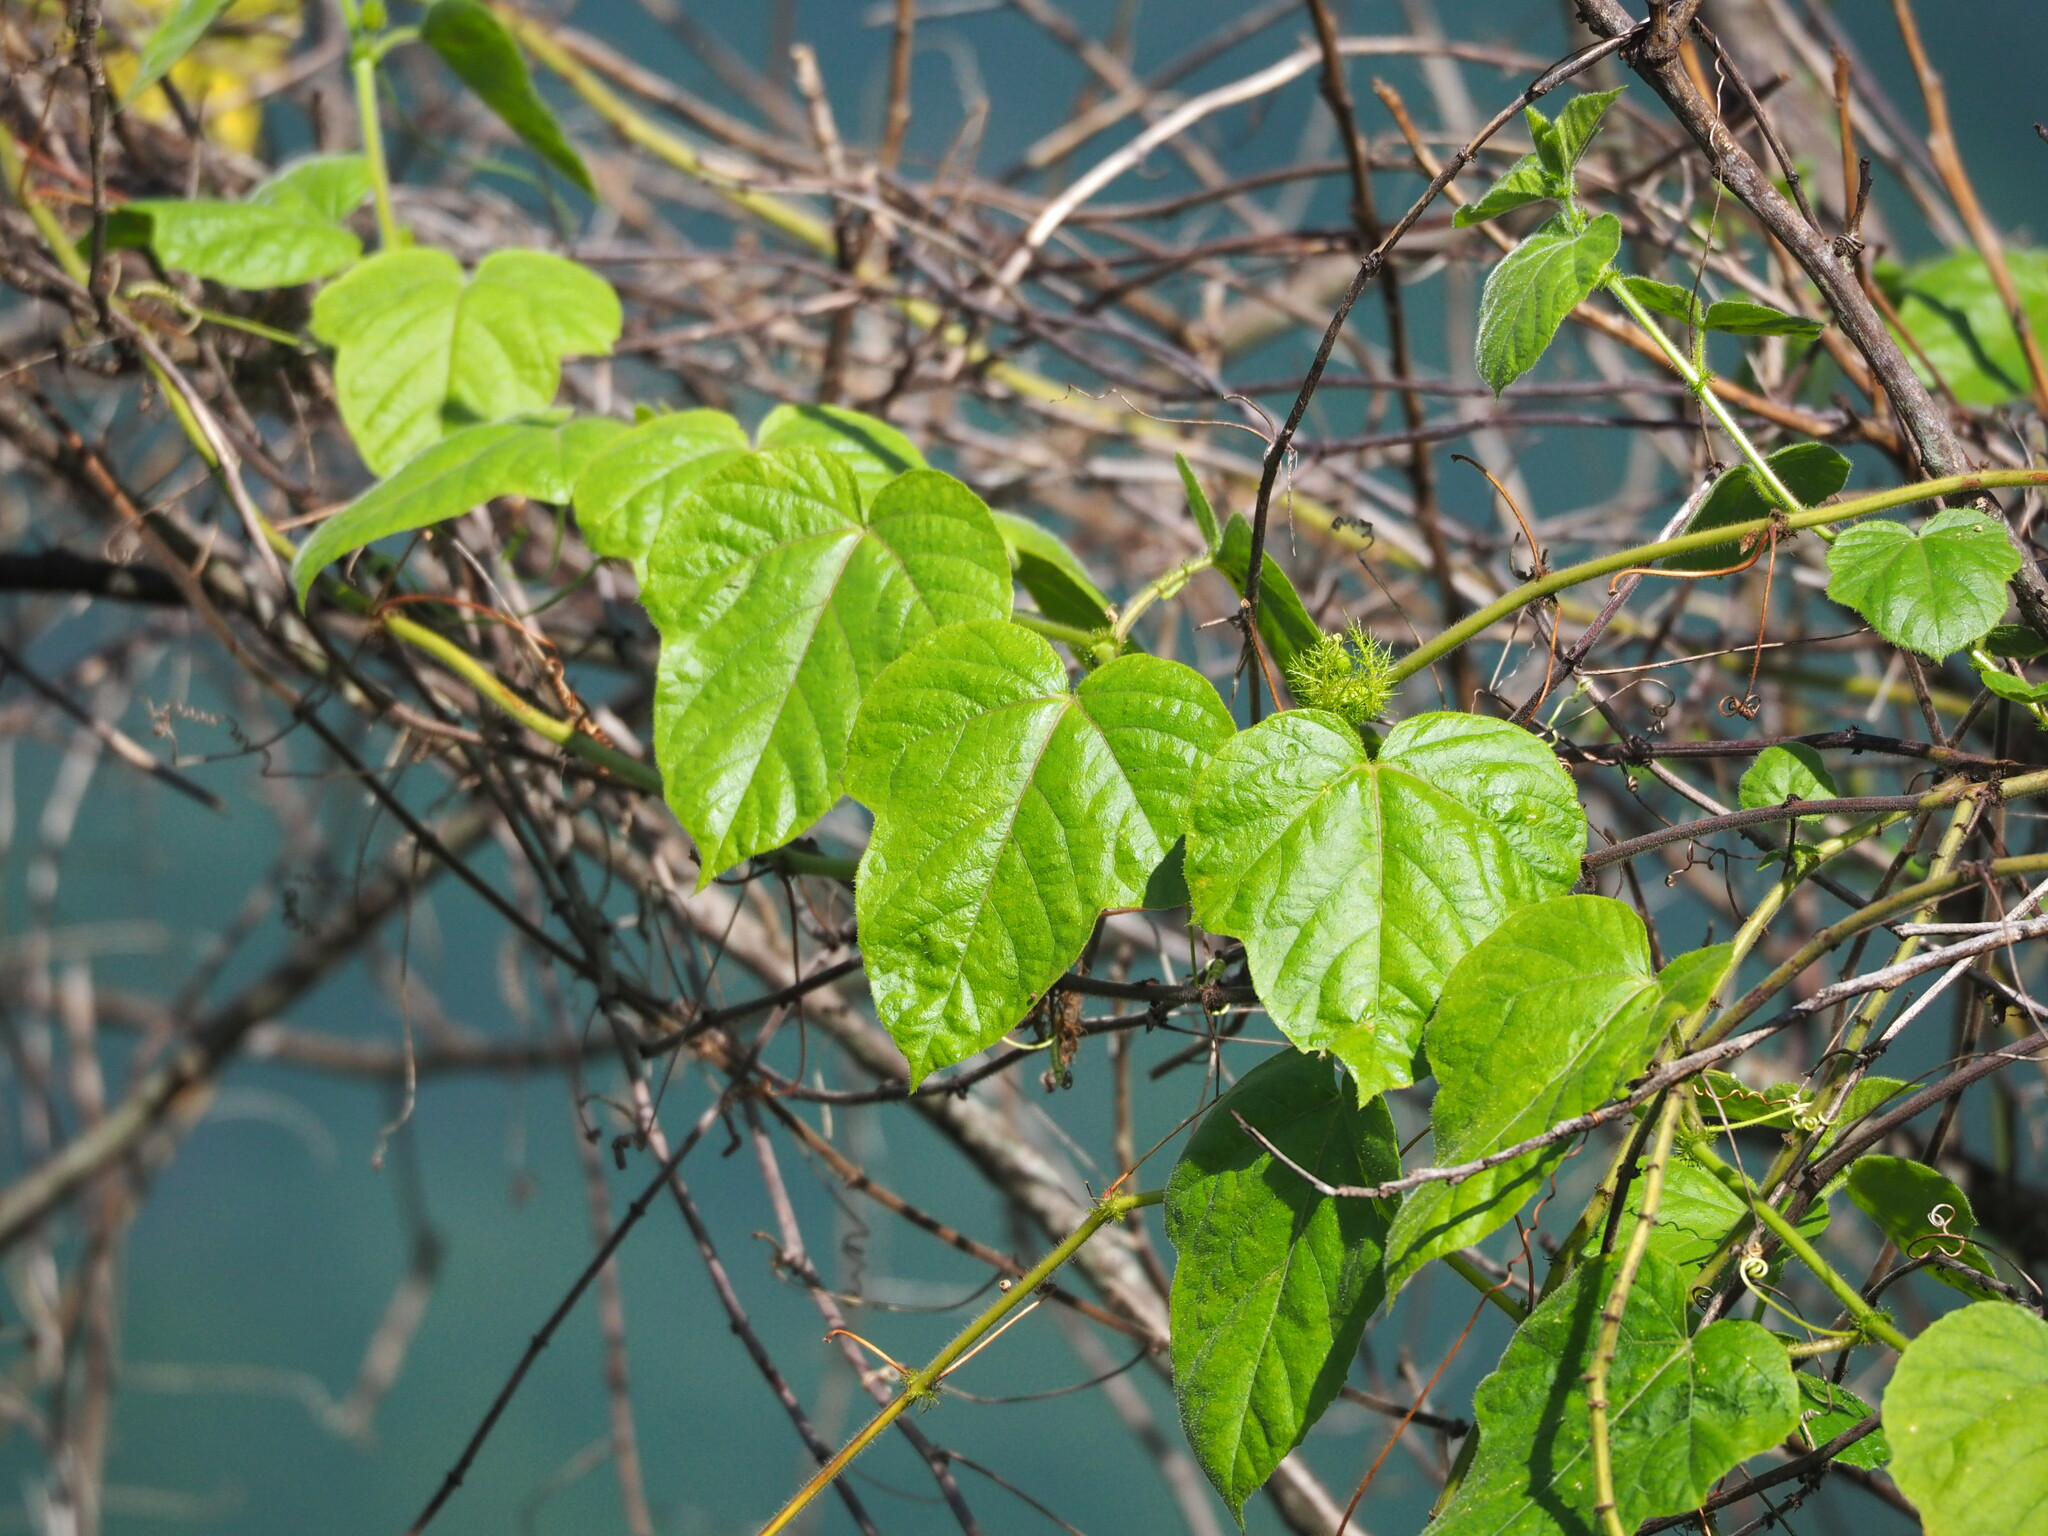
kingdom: Plantae
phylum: Tracheophyta
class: Magnoliopsida
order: Malpighiales
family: Passifloraceae
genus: Passiflora
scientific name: Passiflora vesicaria
